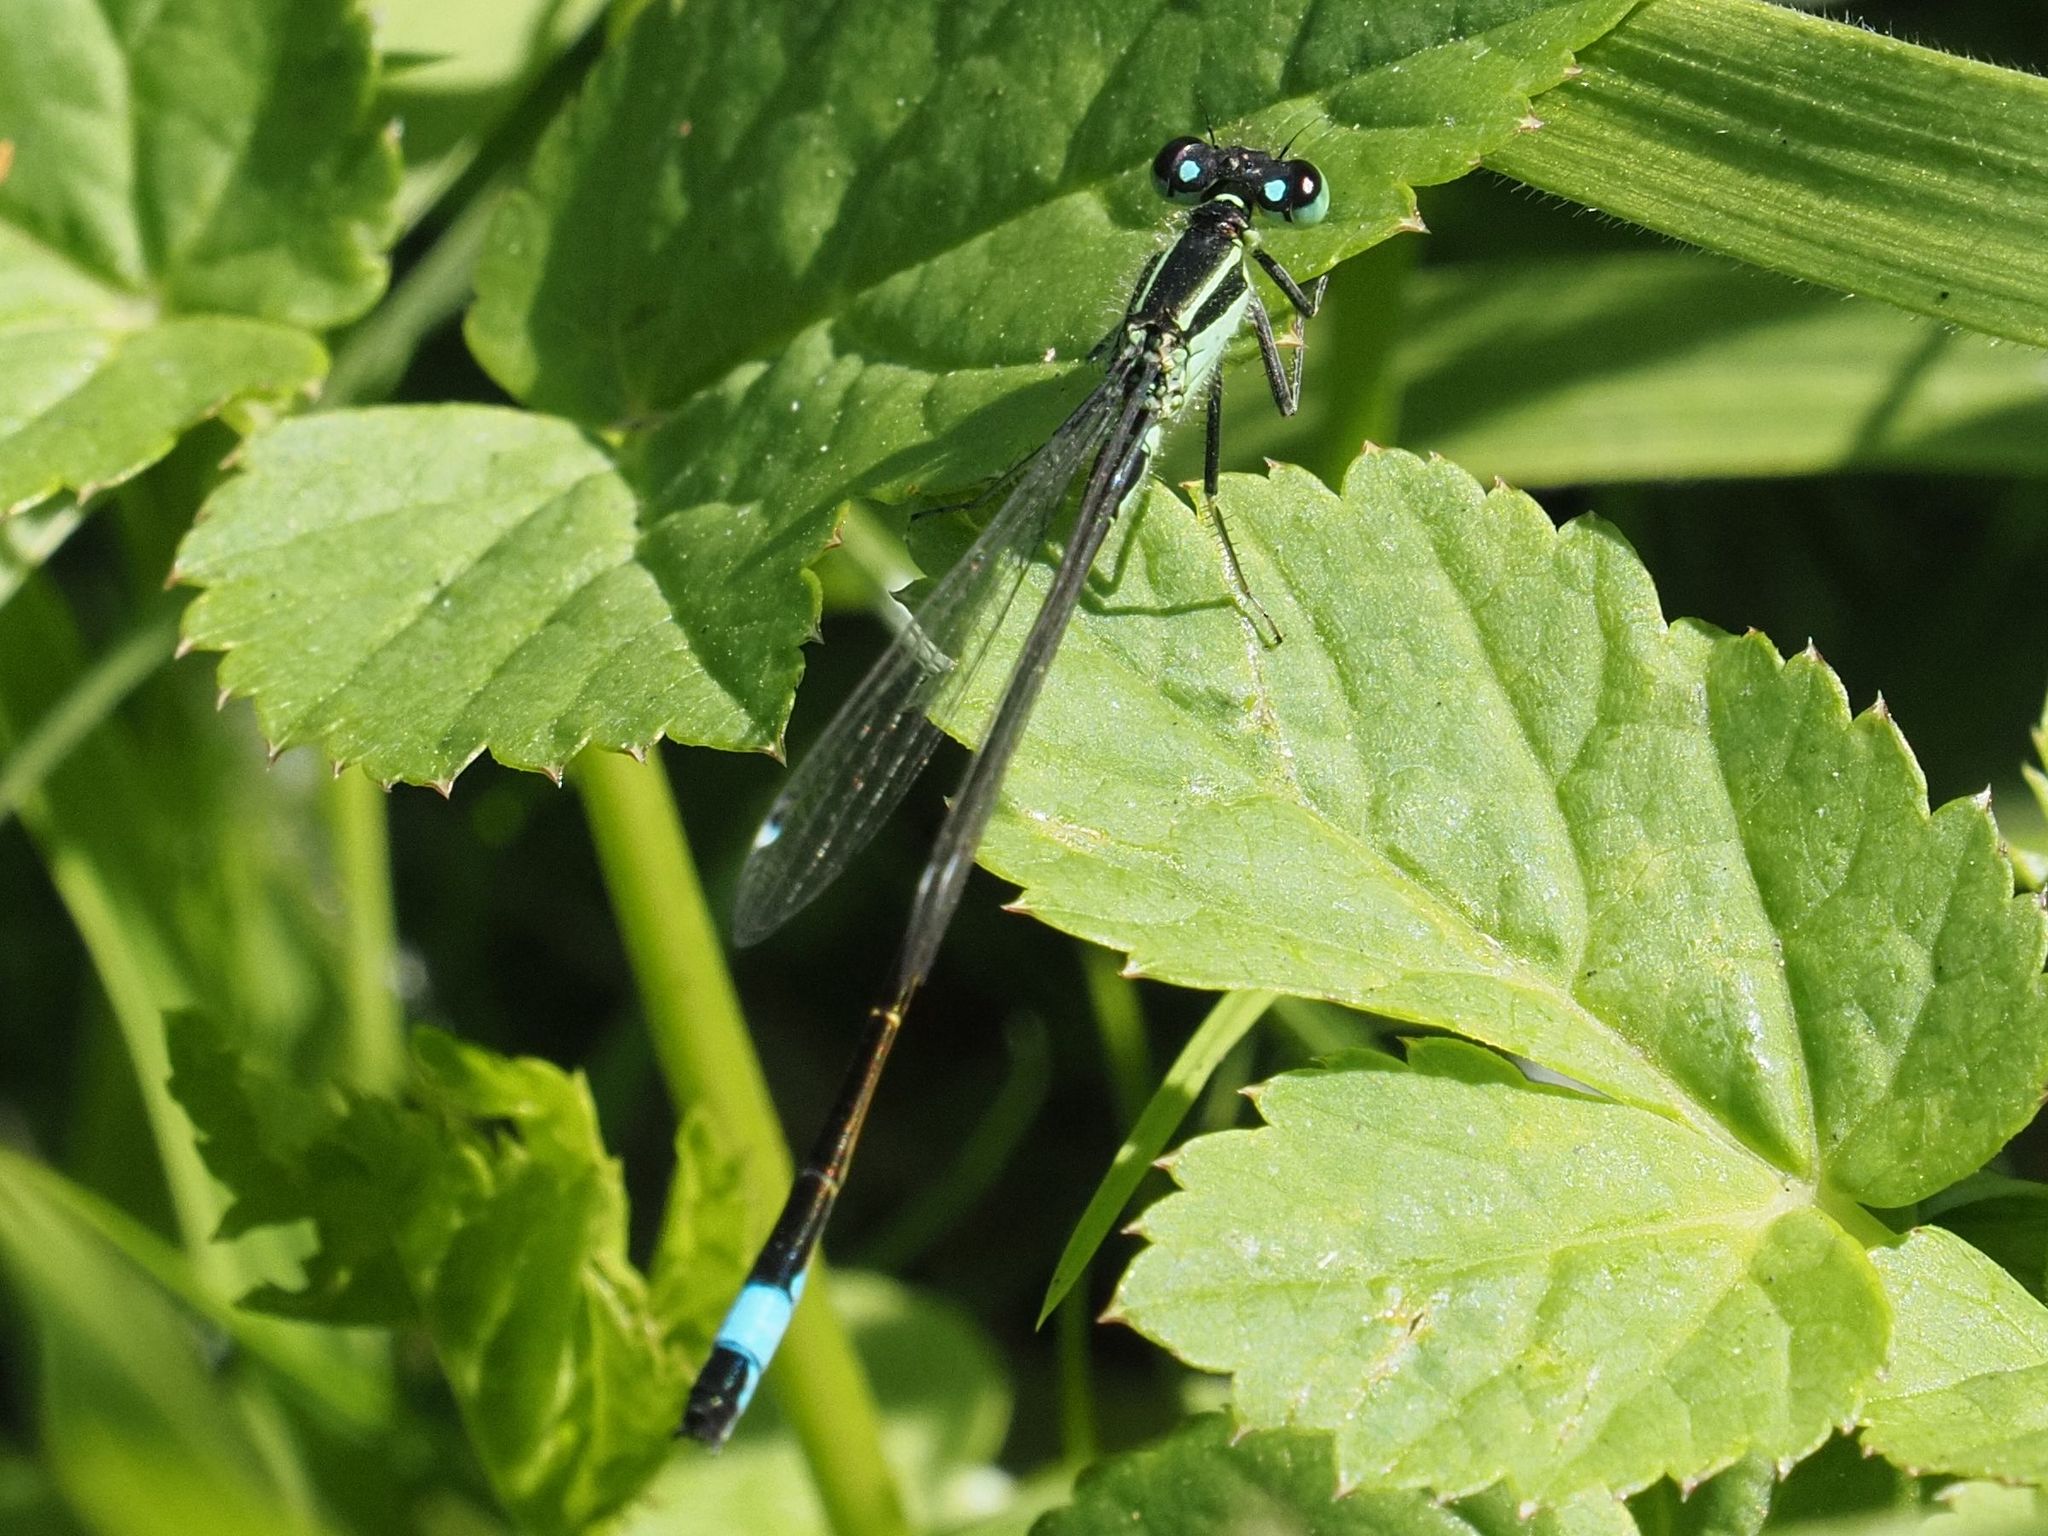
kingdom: Animalia
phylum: Arthropoda
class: Insecta
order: Odonata
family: Coenagrionidae
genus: Ischnura
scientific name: Ischnura elegans
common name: Blue-tailed damselfly
